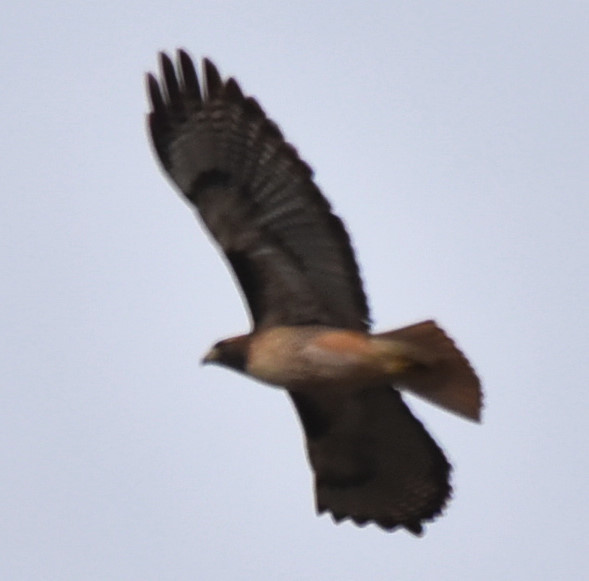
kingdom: Animalia
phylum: Chordata
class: Aves
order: Accipitriformes
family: Accipitridae
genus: Buteo
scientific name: Buteo jamaicensis
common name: Red-tailed hawk
